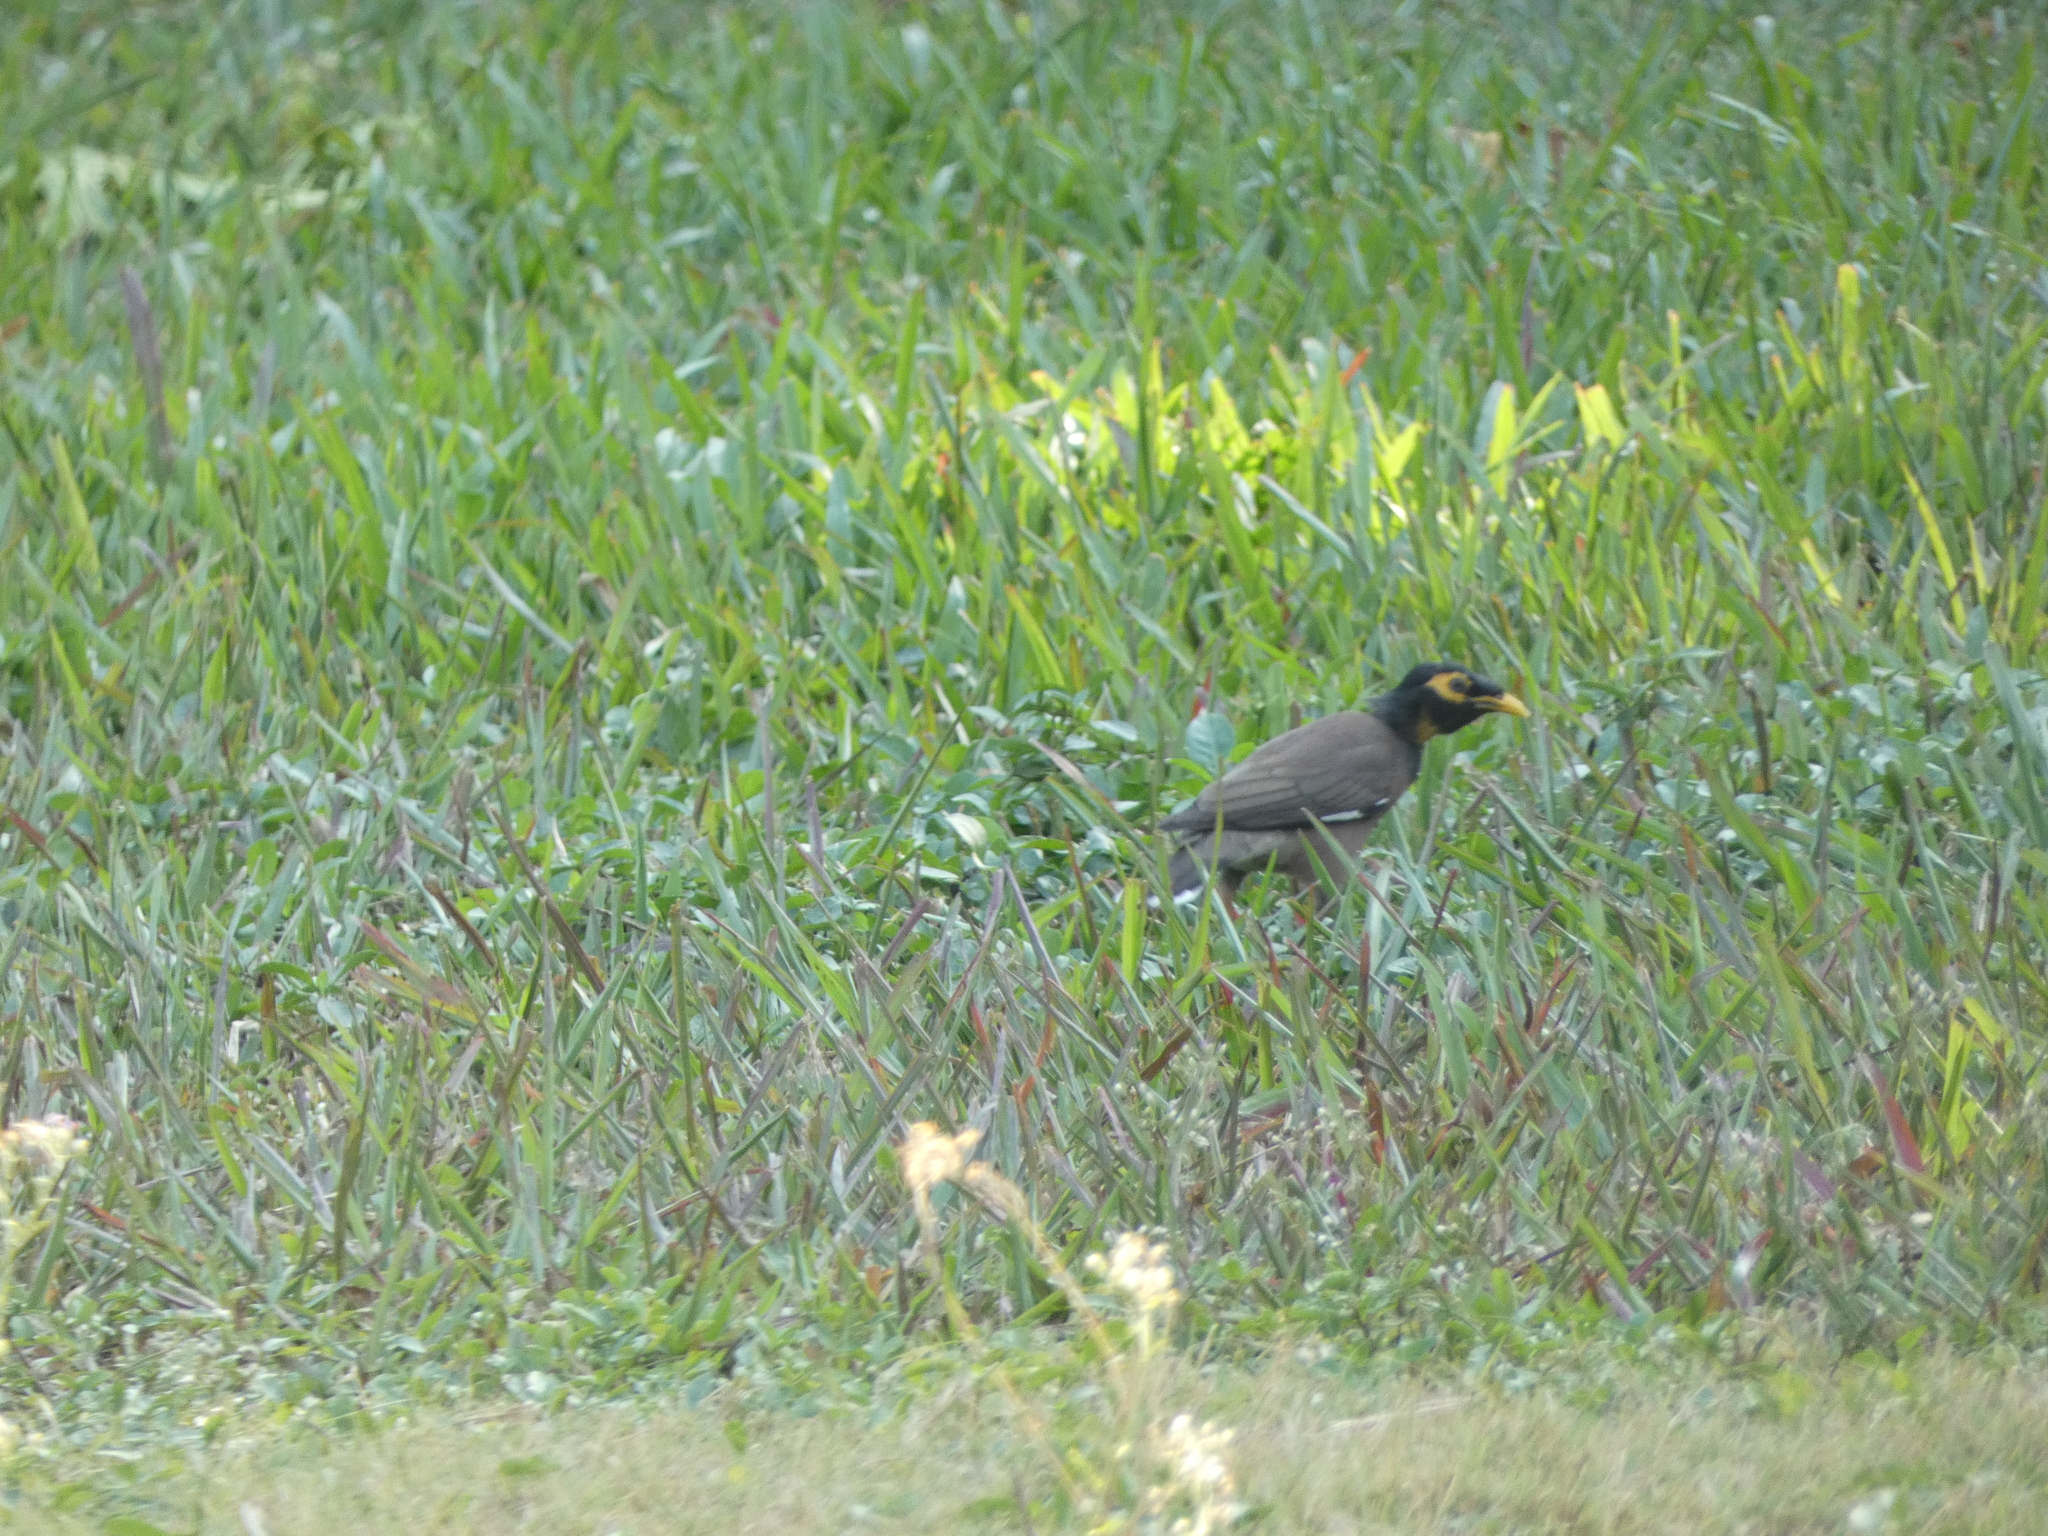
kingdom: Animalia
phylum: Chordata
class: Aves
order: Passeriformes
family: Sturnidae
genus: Acridotheres
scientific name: Acridotheres tristis
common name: Common myna
